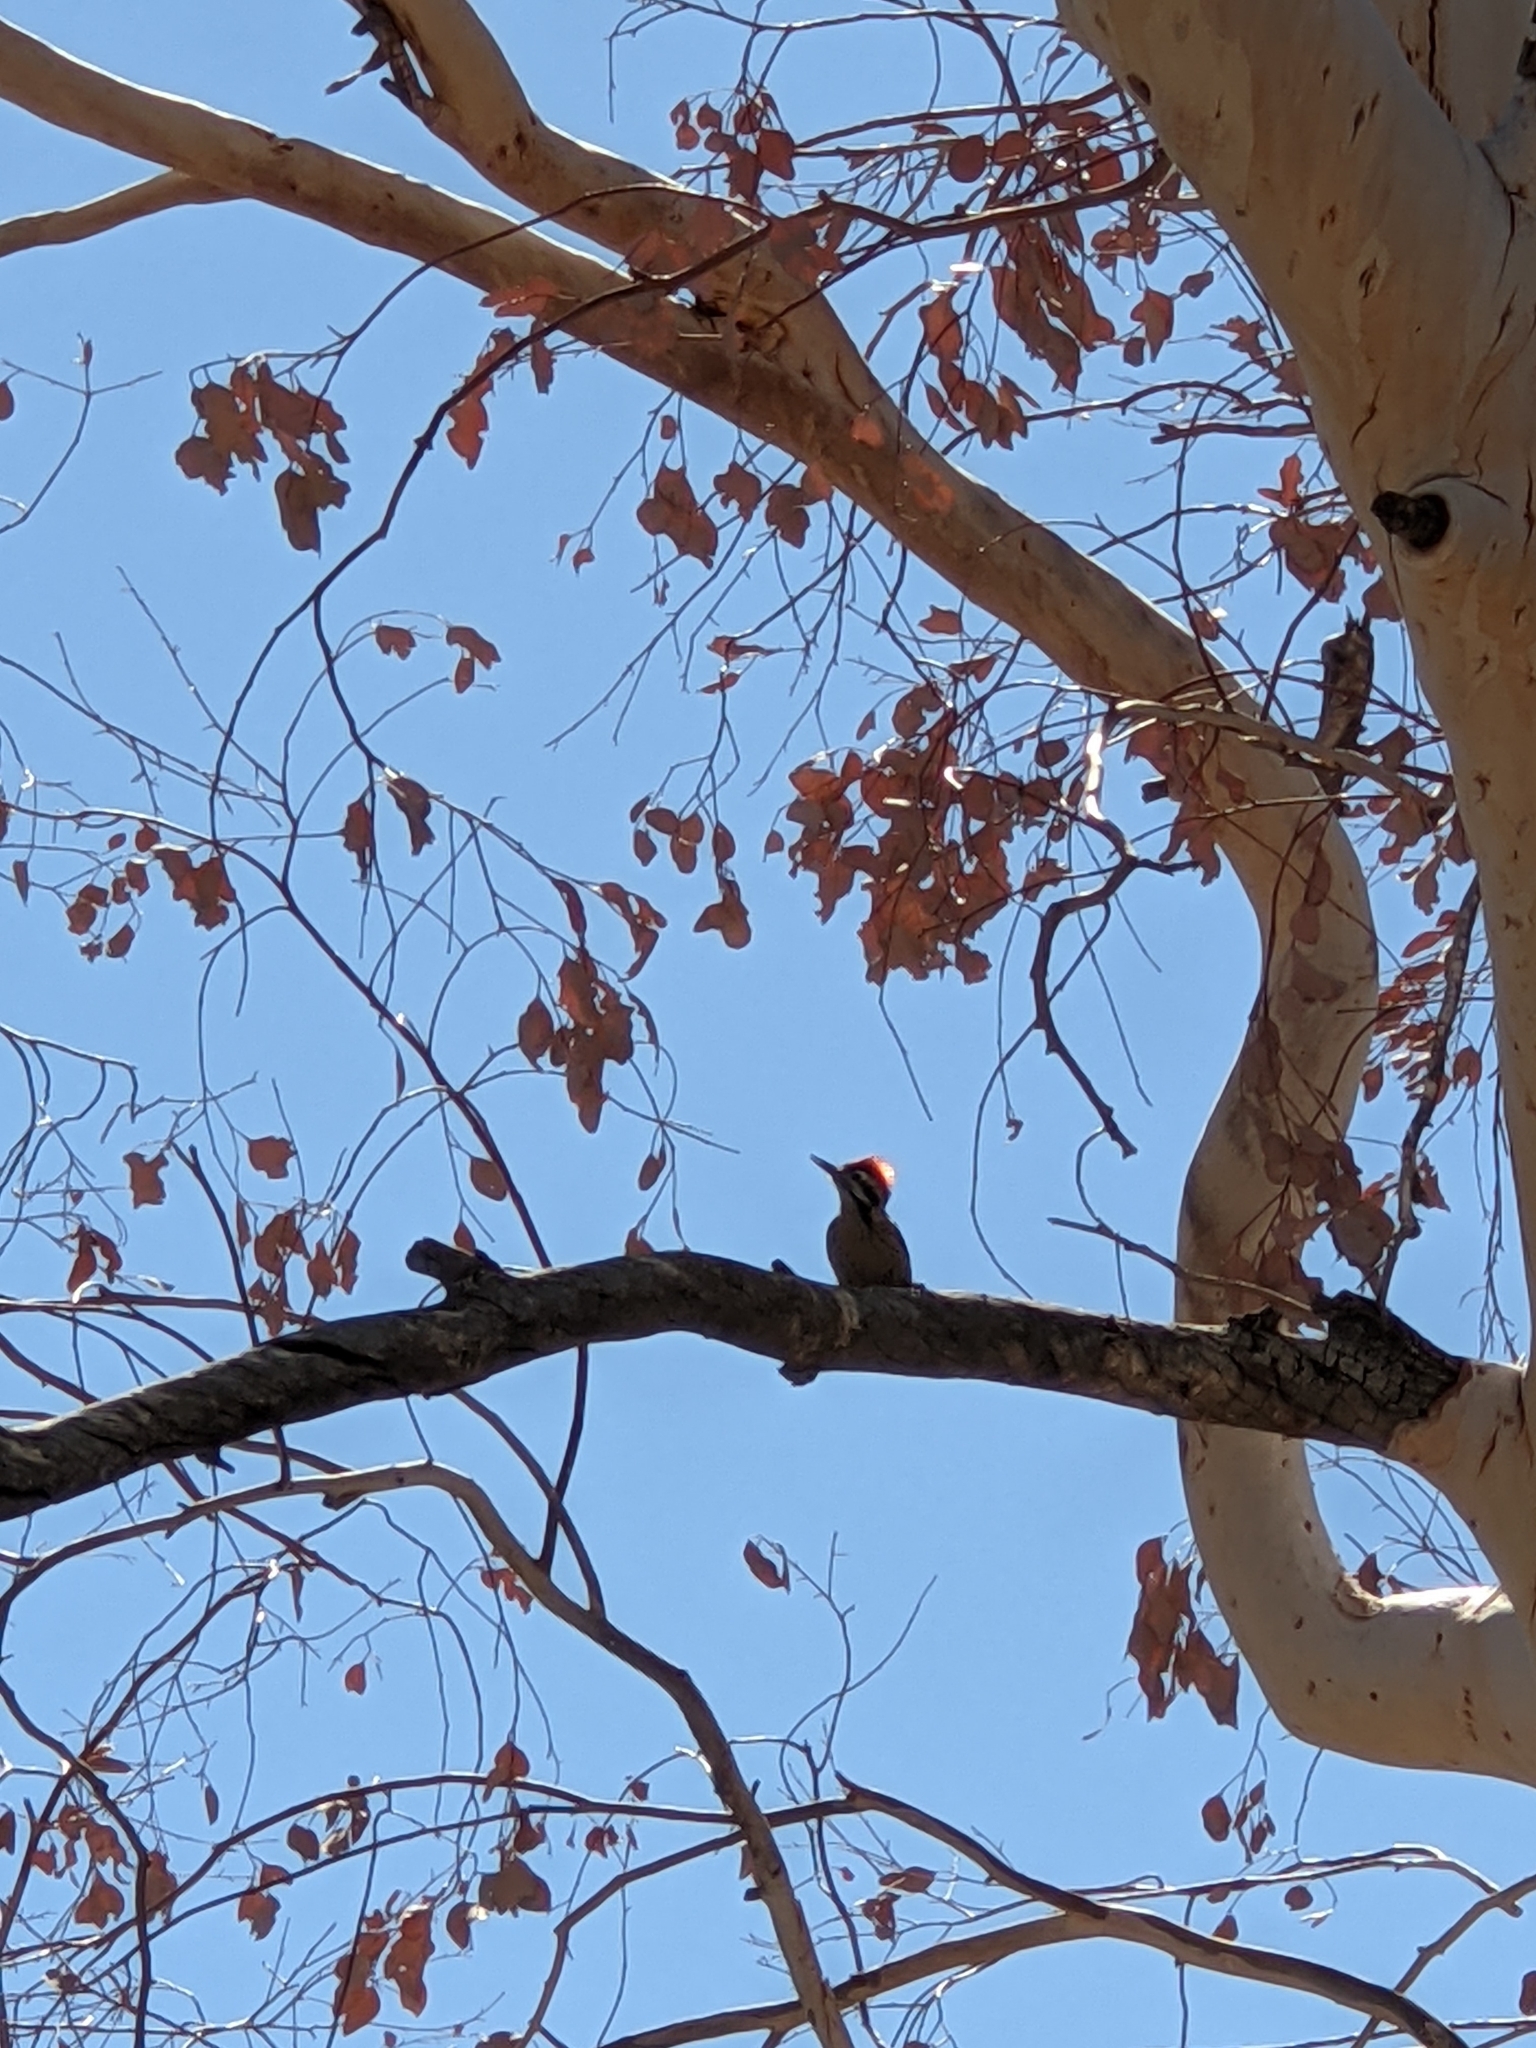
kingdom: Animalia
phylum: Chordata
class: Aves
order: Piciformes
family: Picidae
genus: Dryobates
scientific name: Dryobates scalaris
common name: Ladder-backed woodpecker
